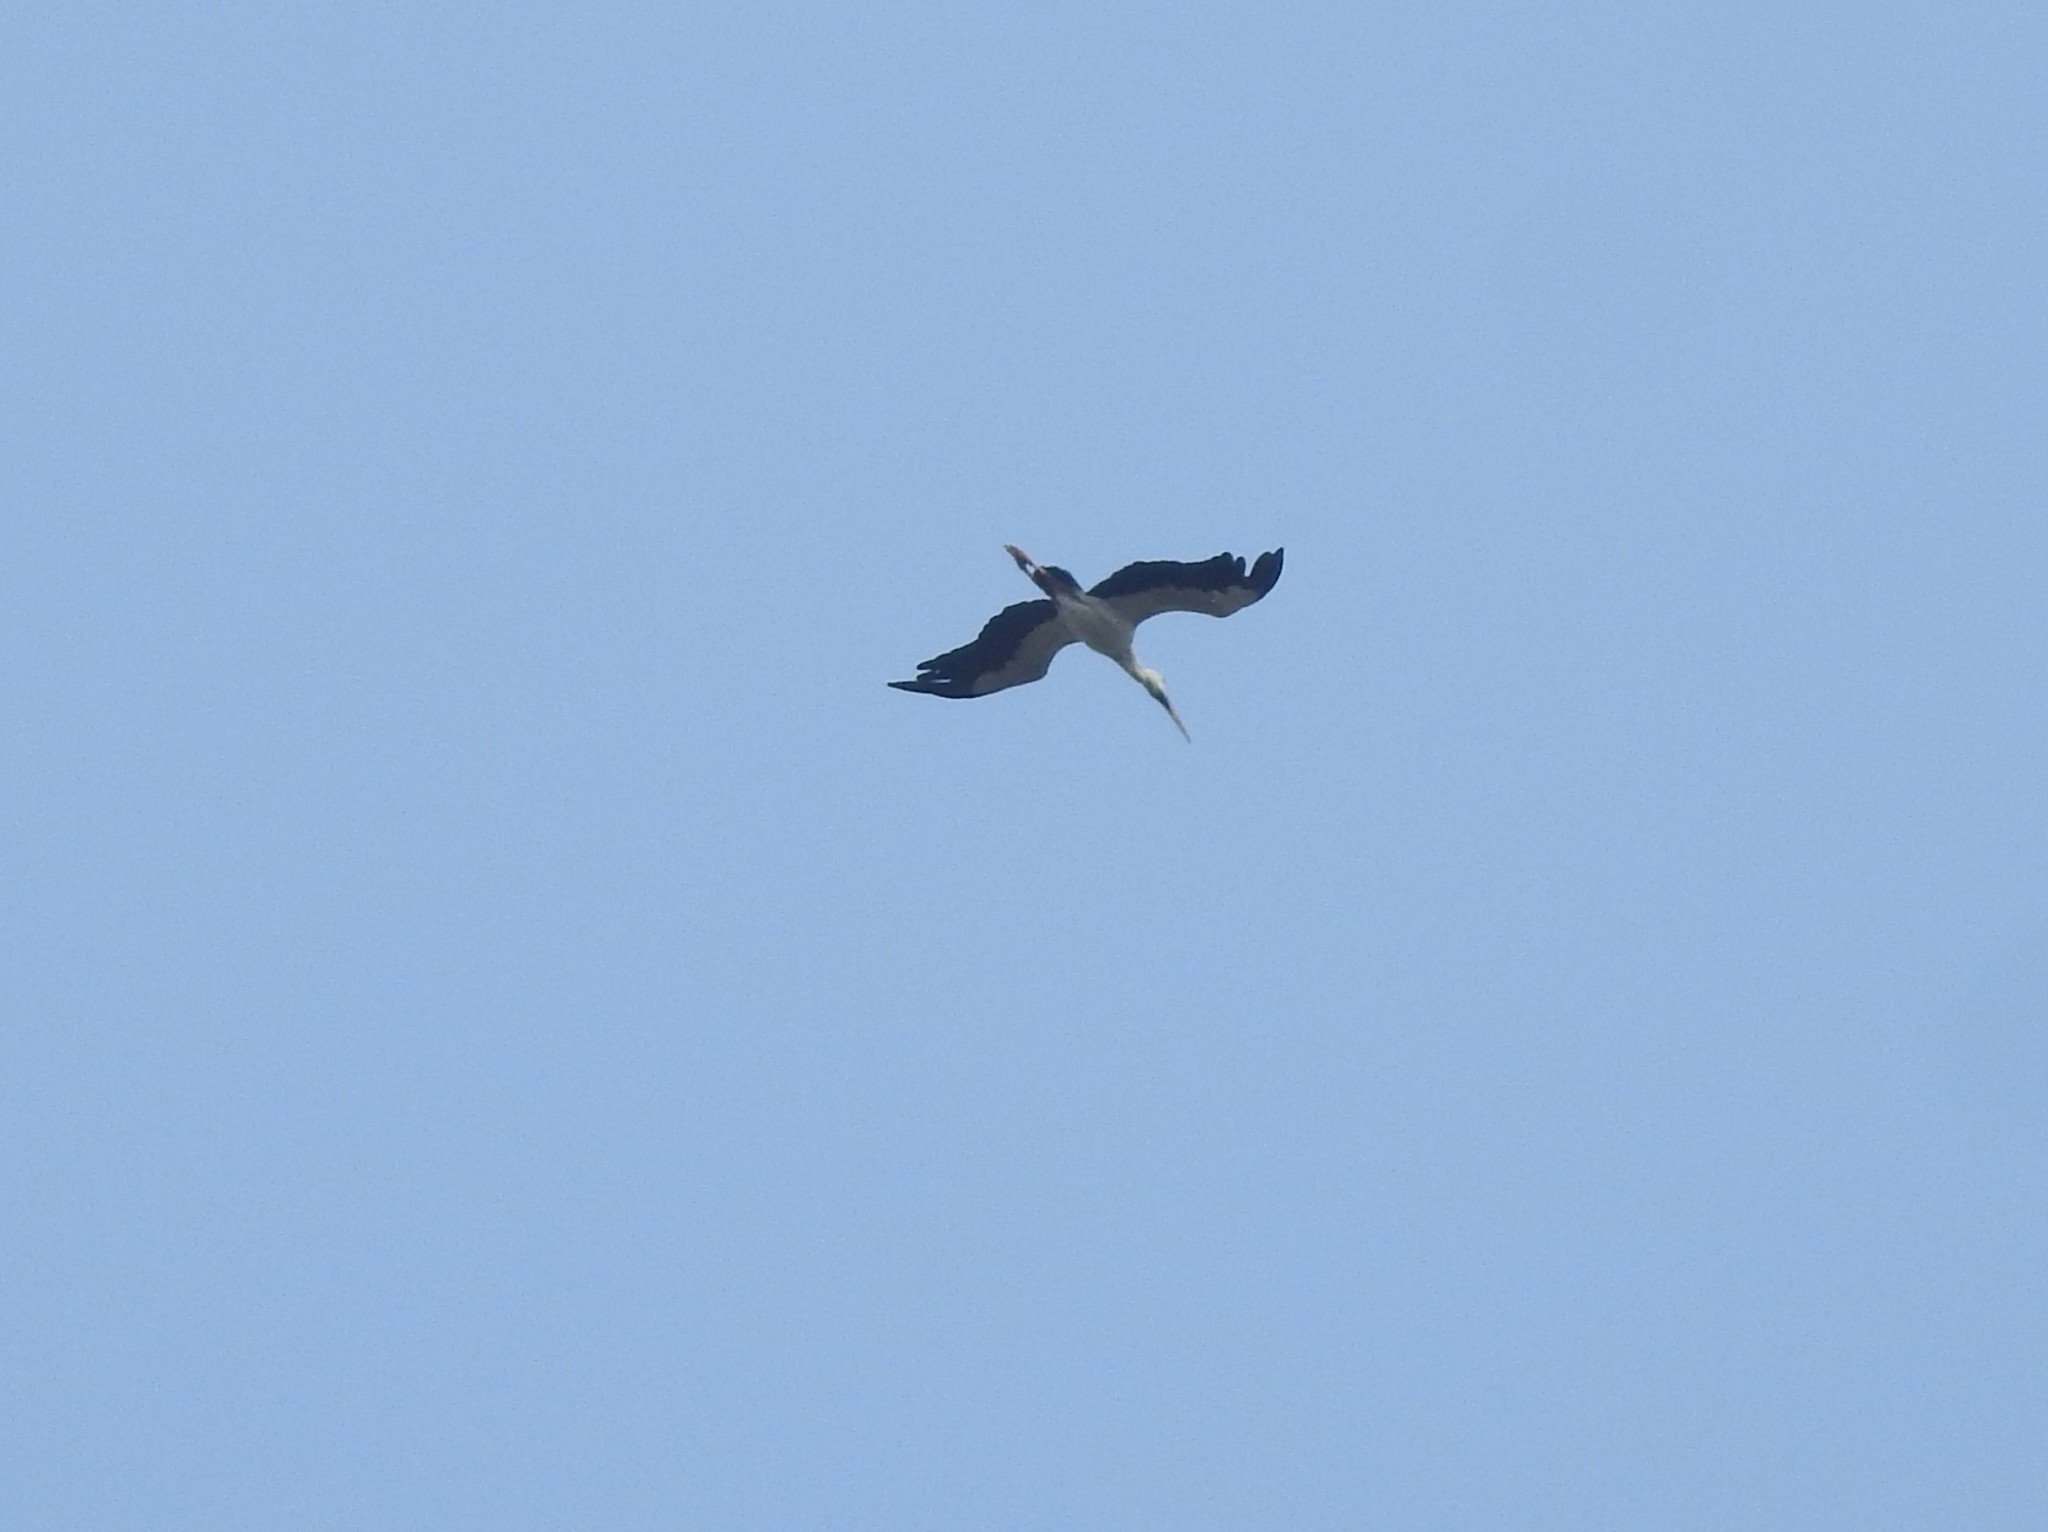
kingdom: Animalia
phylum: Chordata
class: Aves
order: Ciconiiformes
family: Ciconiidae
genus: Anastomus
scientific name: Anastomus oscitans
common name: Asian openbill
